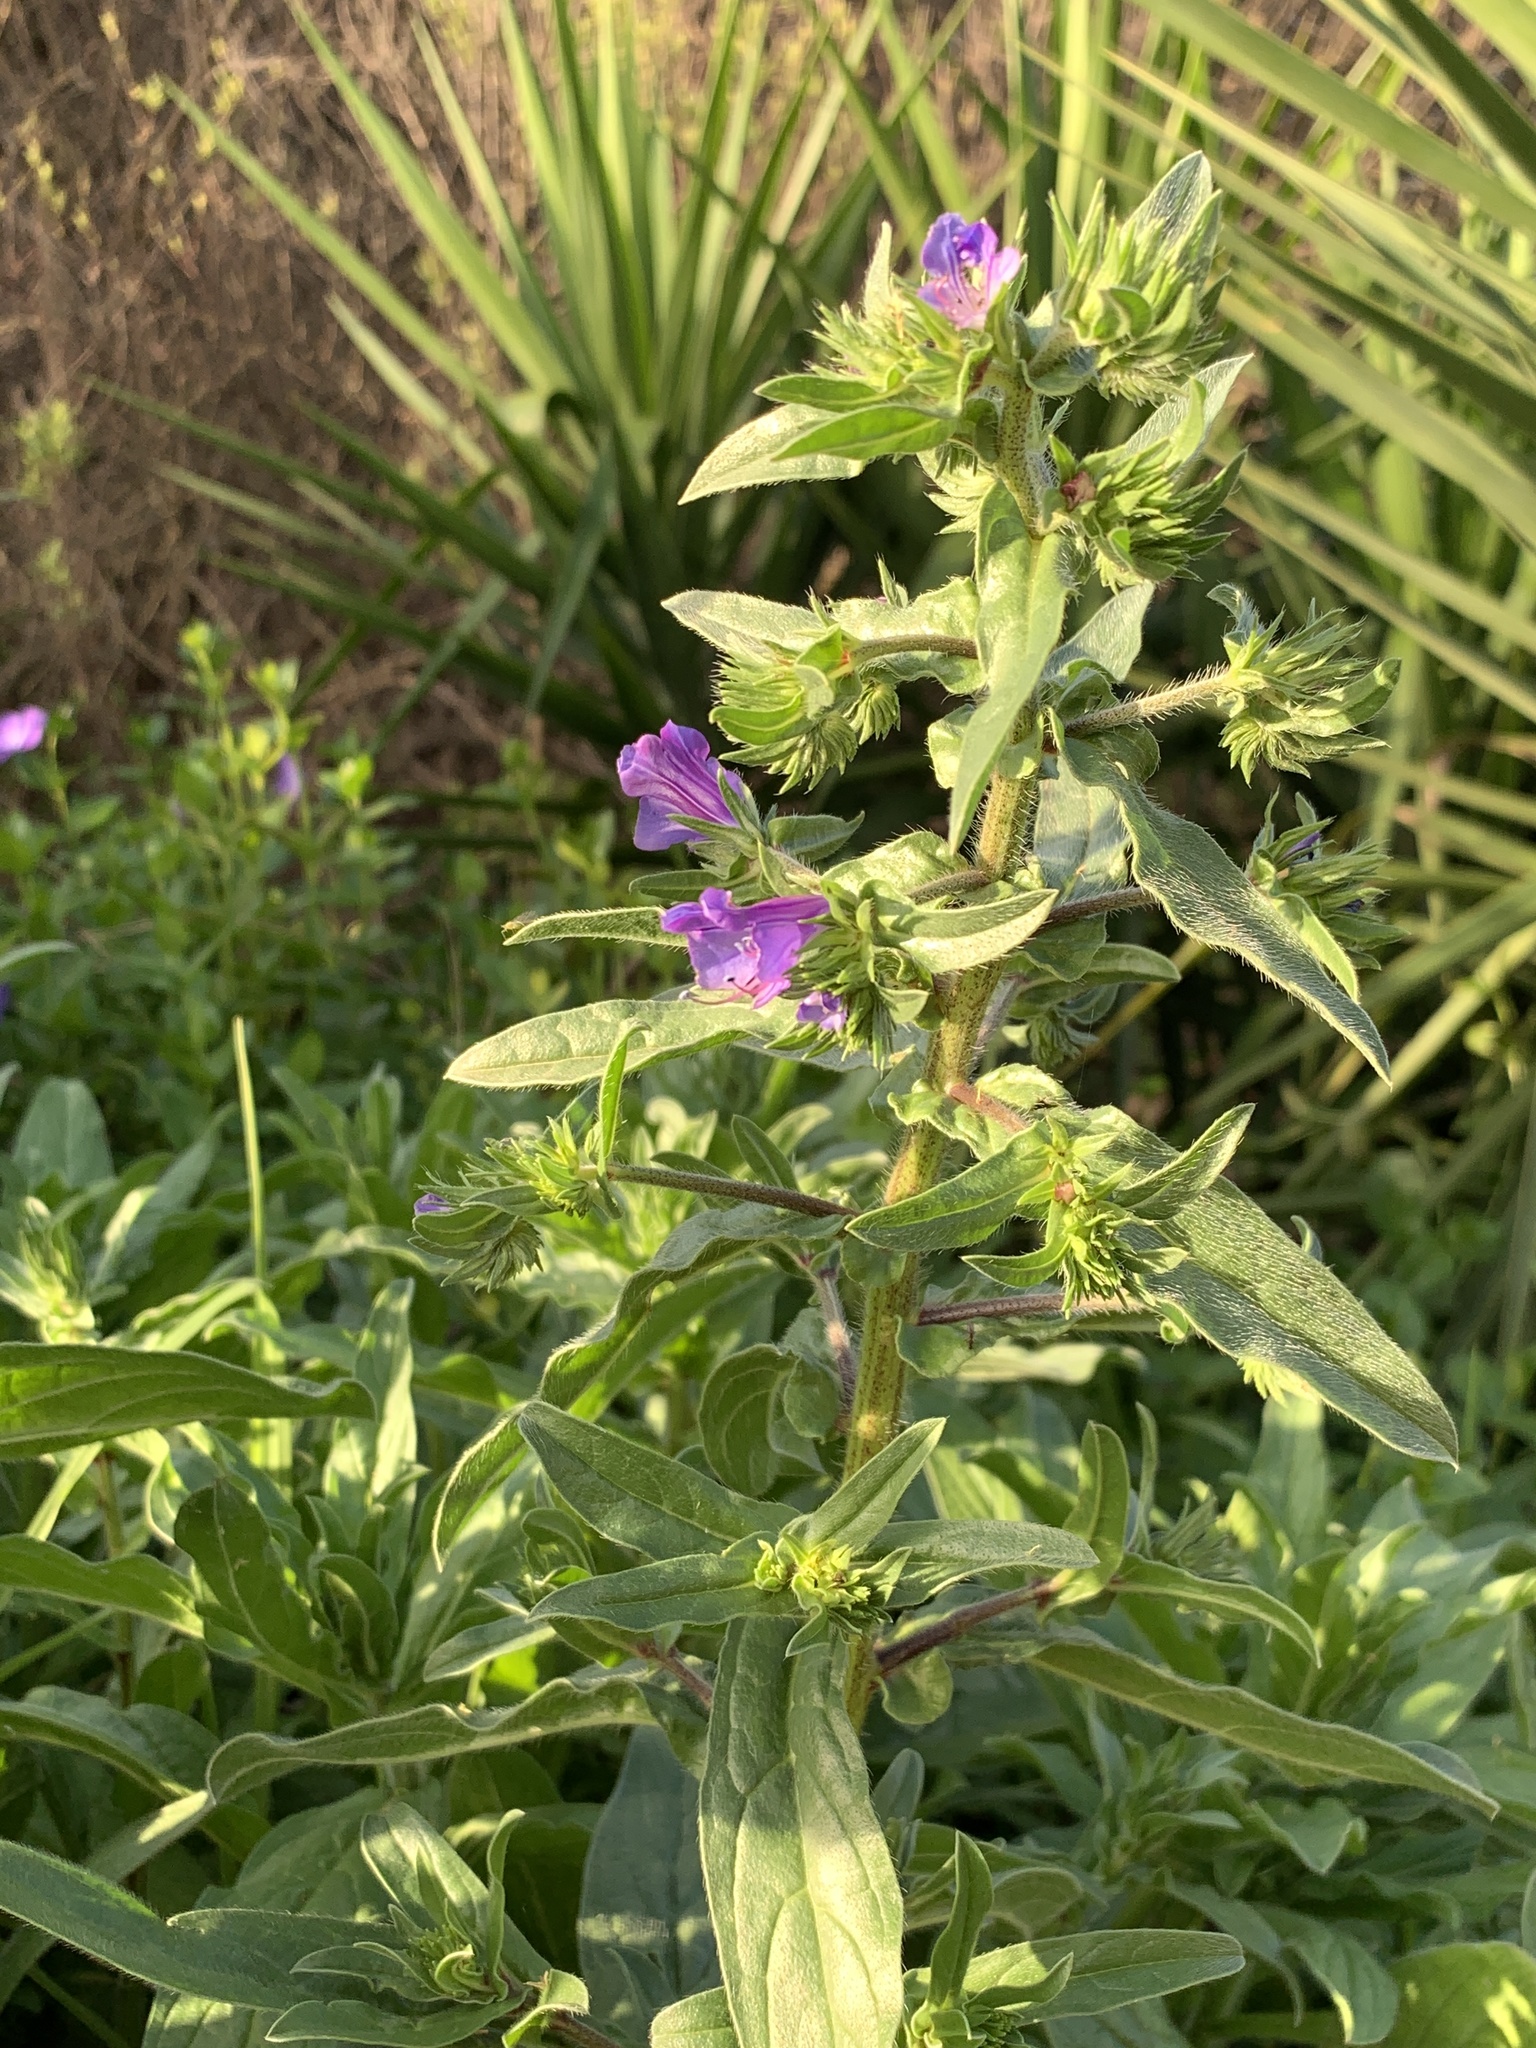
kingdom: Plantae
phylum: Tracheophyta
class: Magnoliopsida
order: Boraginales
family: Boraginaceae
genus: Echium
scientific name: Echium plantagineum
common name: Purple viper's-bugloss
